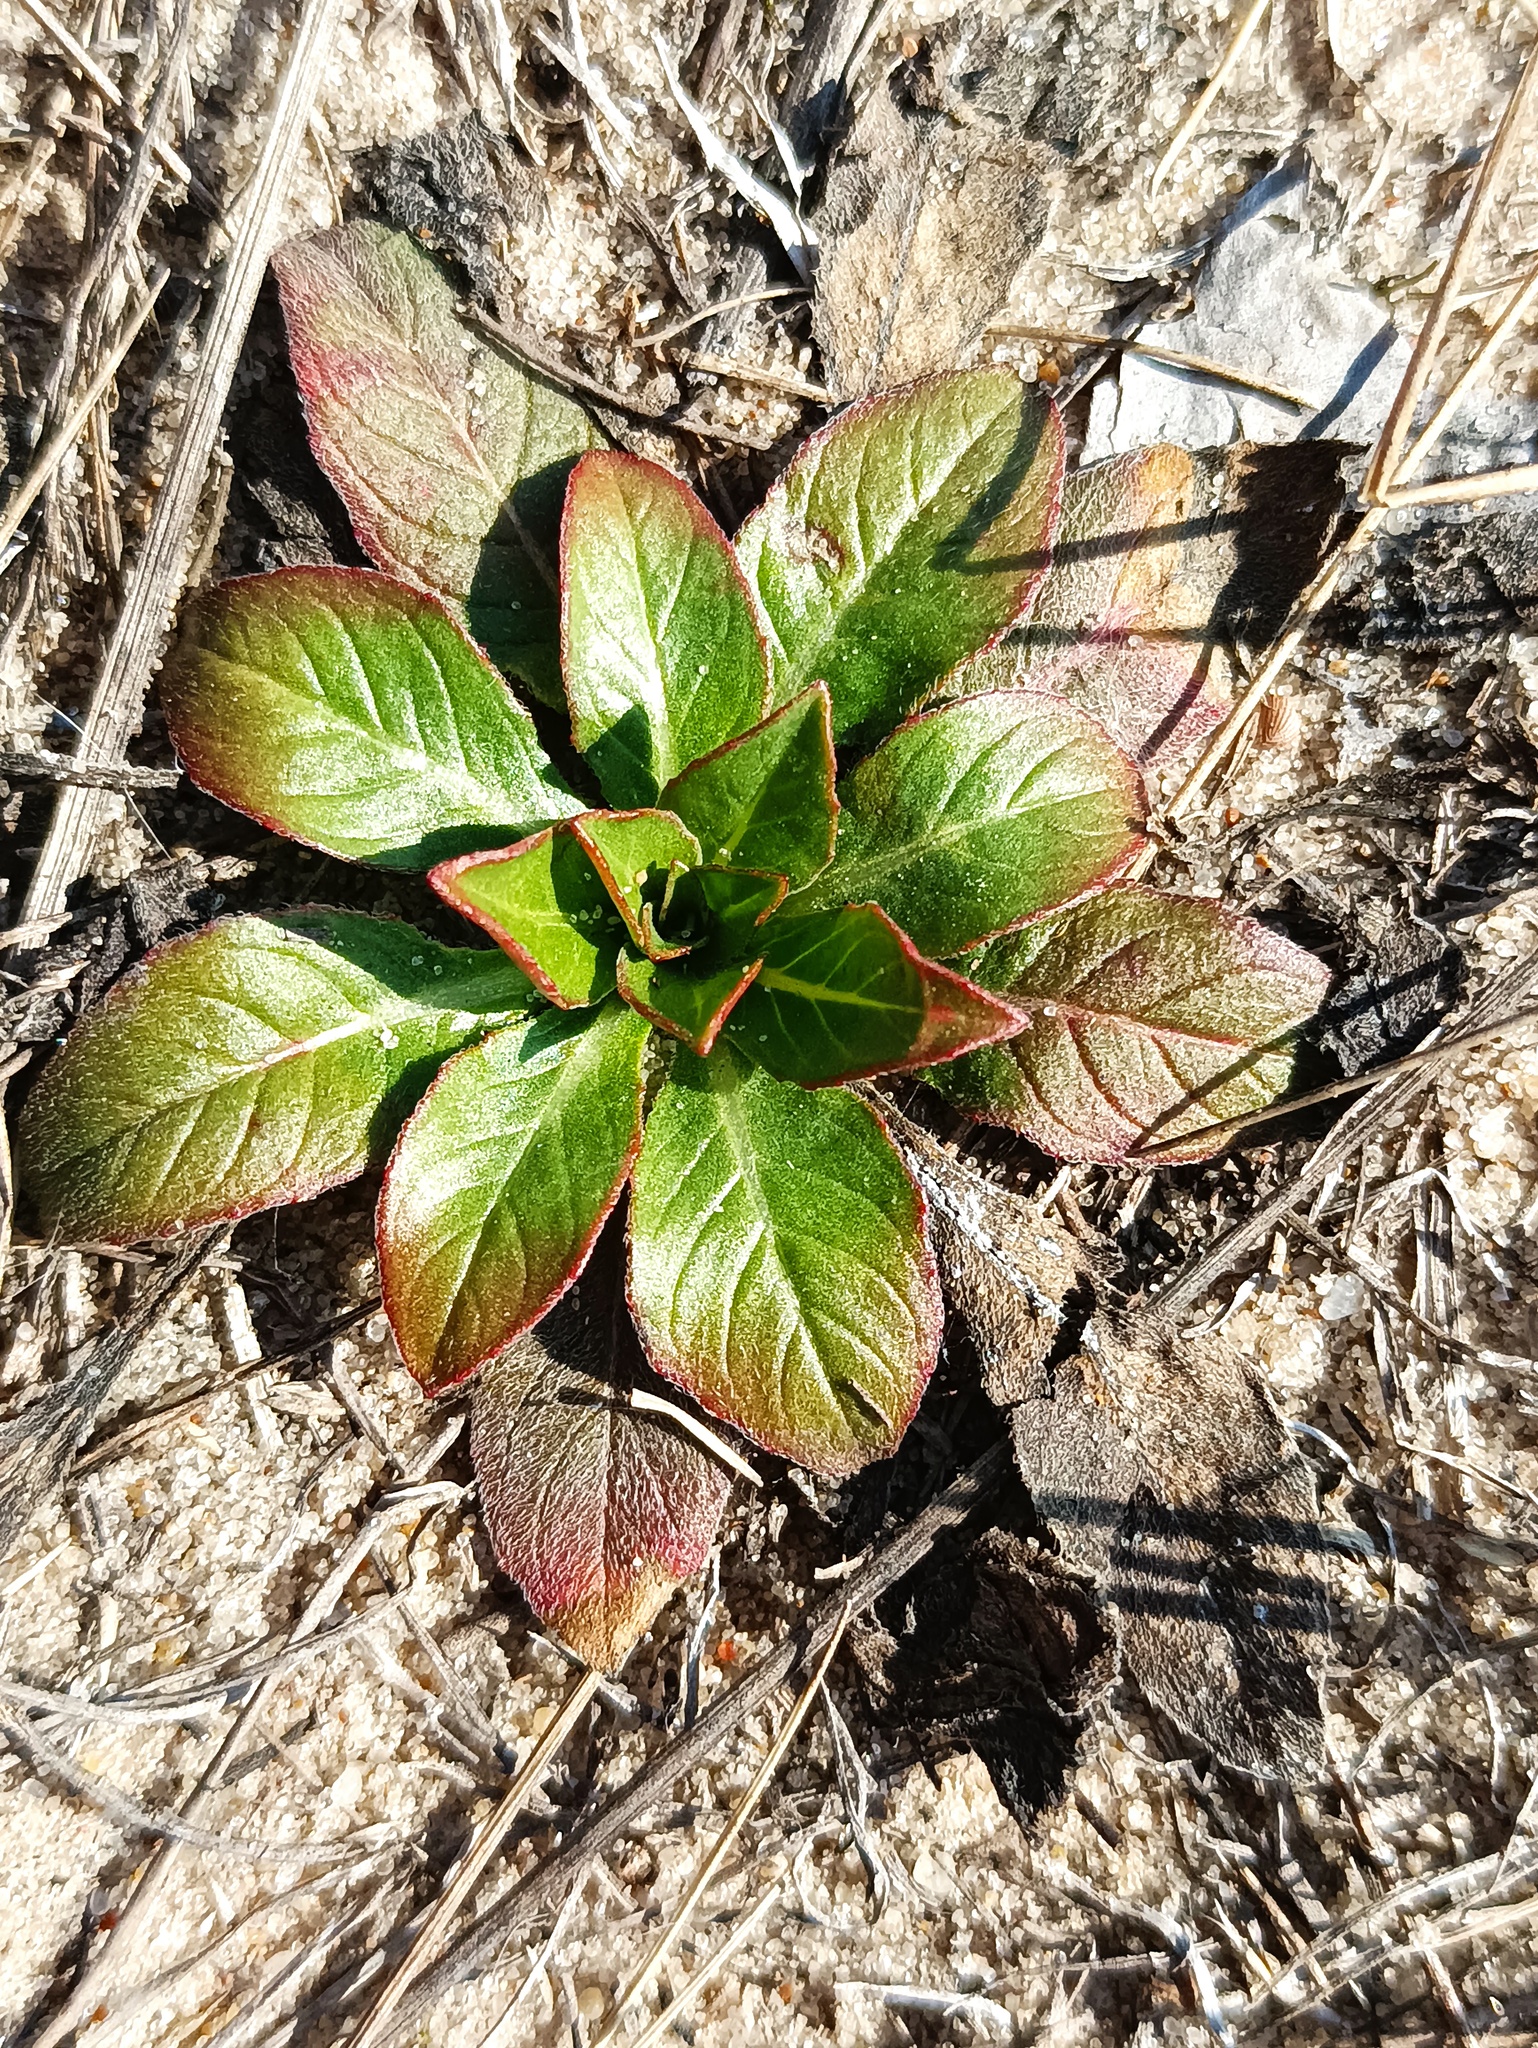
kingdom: Plantae
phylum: Tracheophyta
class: Magnoliopsida
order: Myrtales
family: Onagraceae
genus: Oenothera
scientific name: Oenothera
